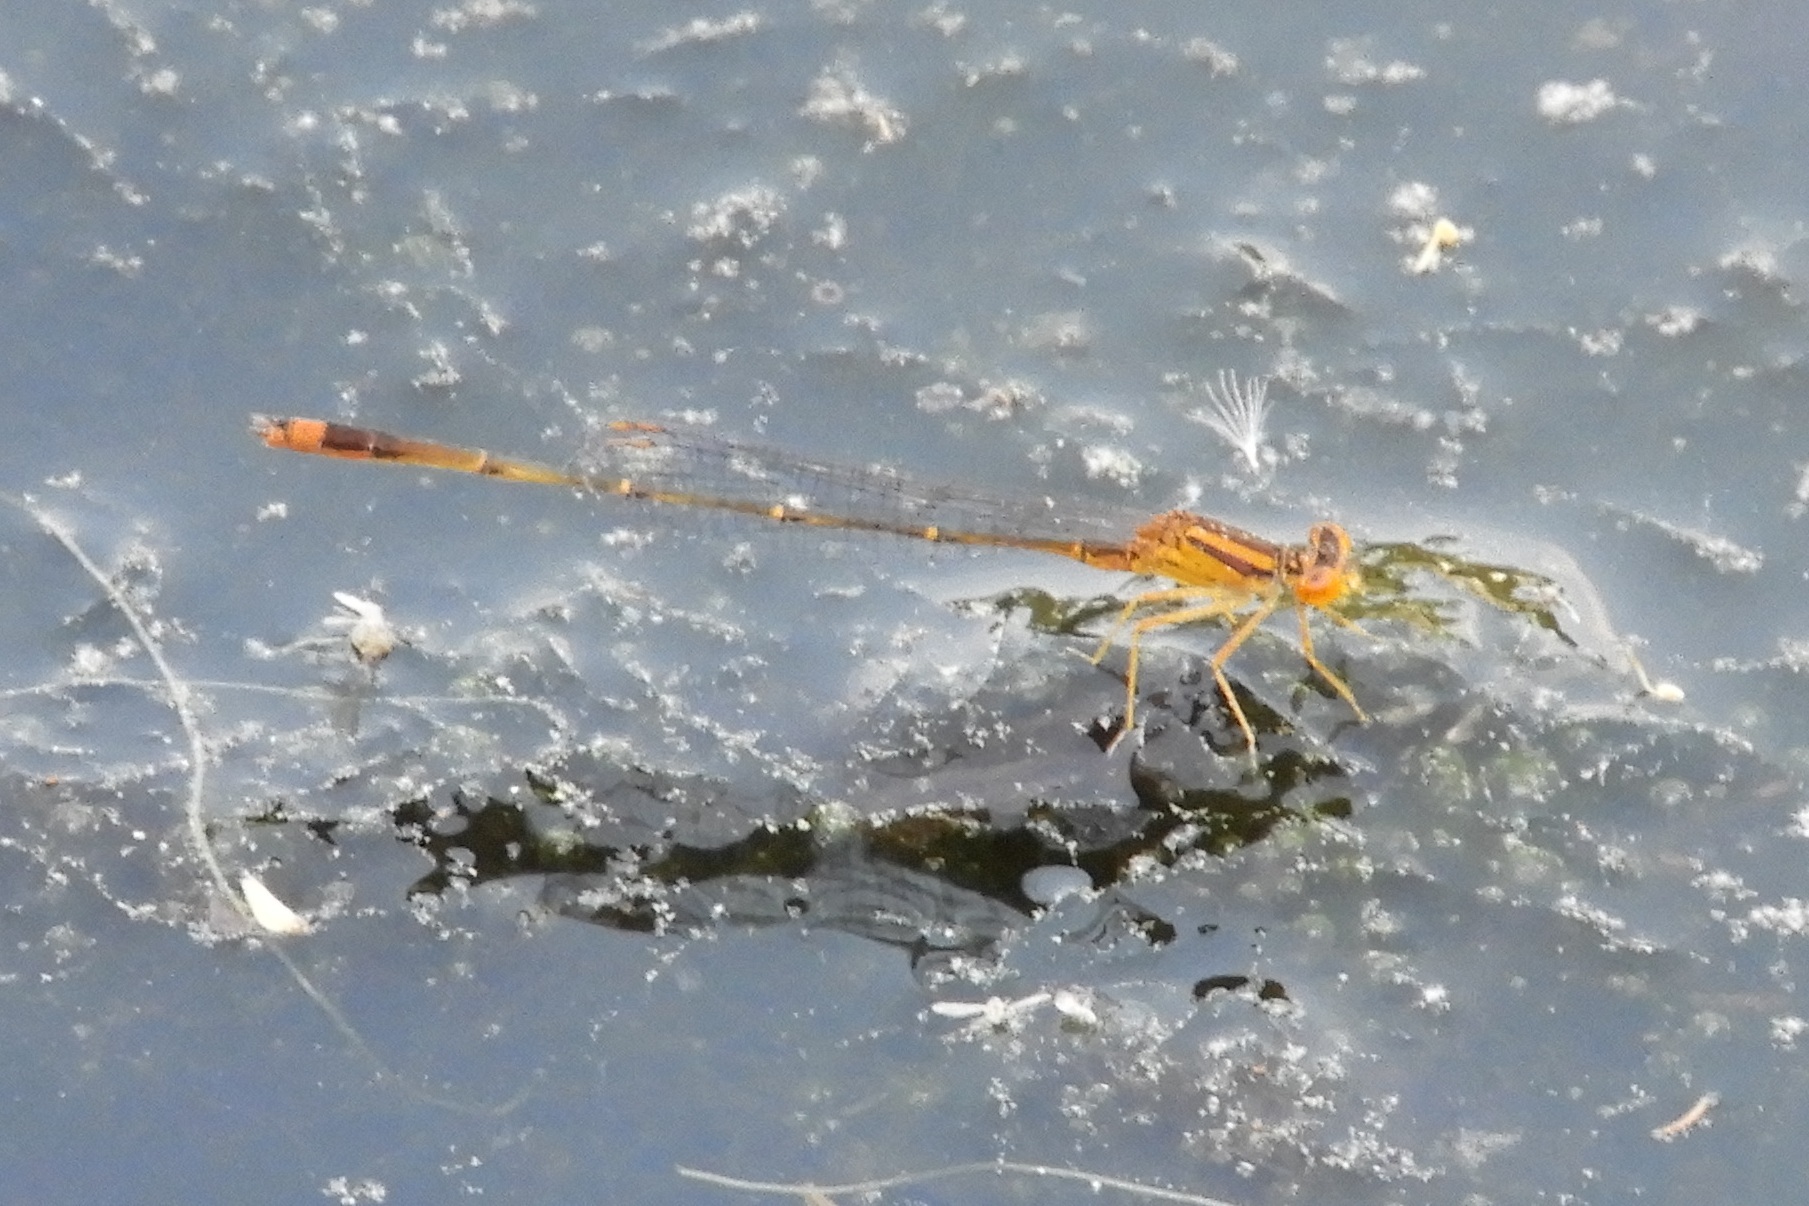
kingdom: Animalia
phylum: Arthropoda
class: Insecta
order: Odonata
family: Coenagrionidae
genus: Enallagma
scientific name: Enallagma signatum
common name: Orange bluet
